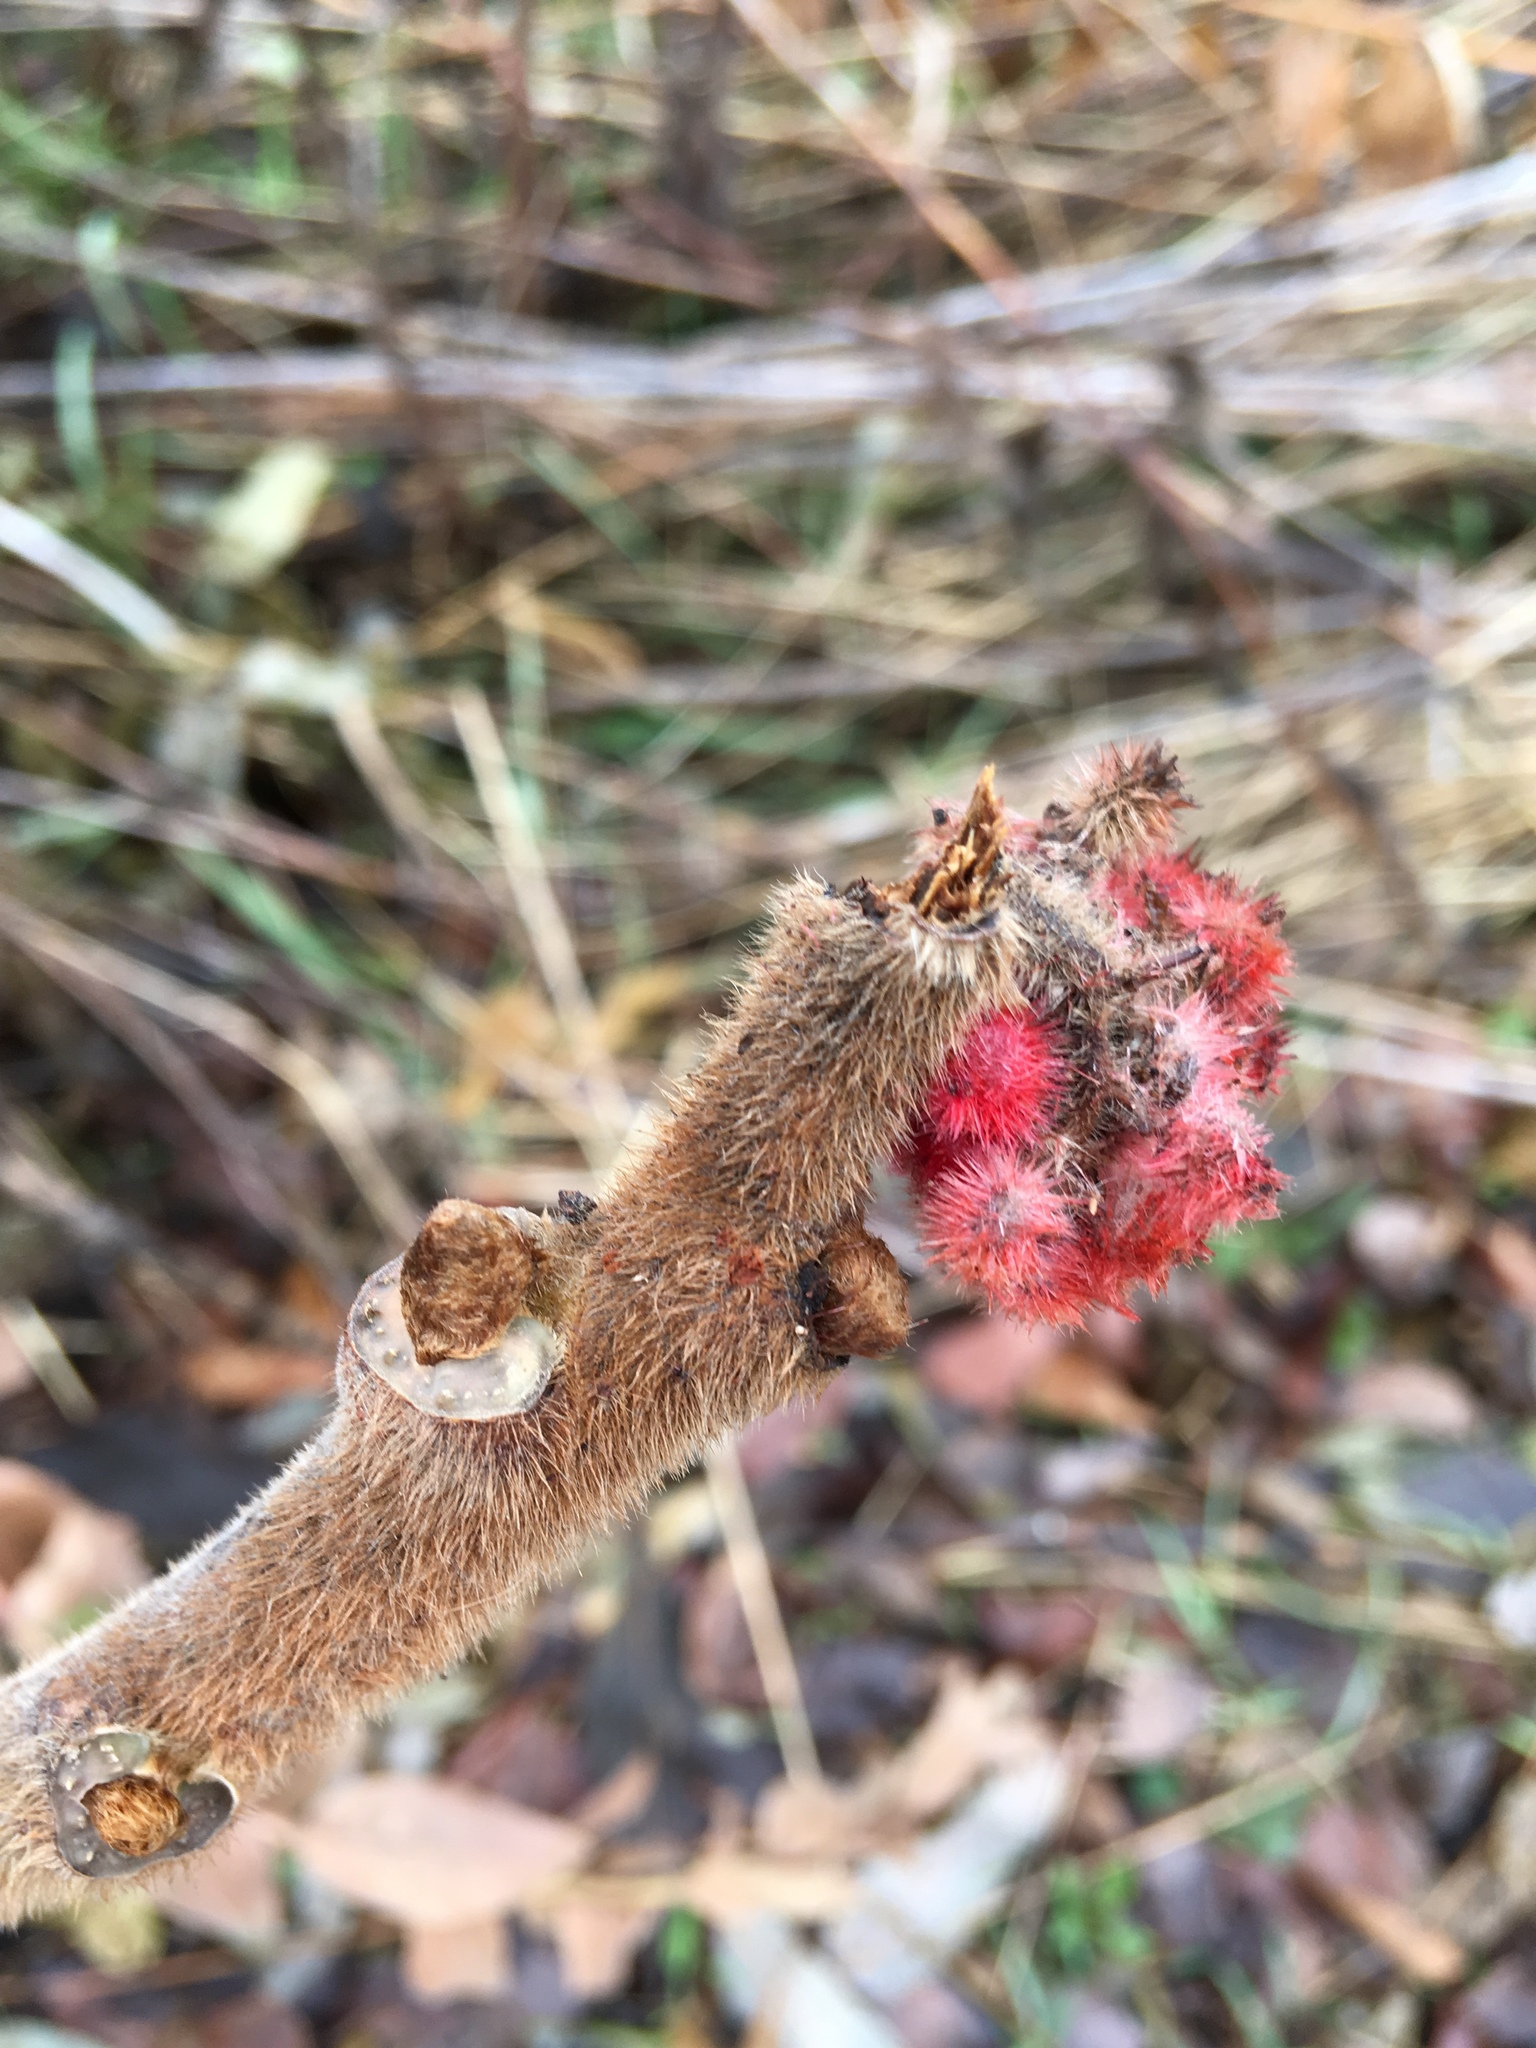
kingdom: Plantae
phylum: Tracheophyta
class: Magnoliopsida
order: Sapindales
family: Anacardiaceae
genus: Rhus
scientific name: Rhus typhina
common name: Staghorn sumac
